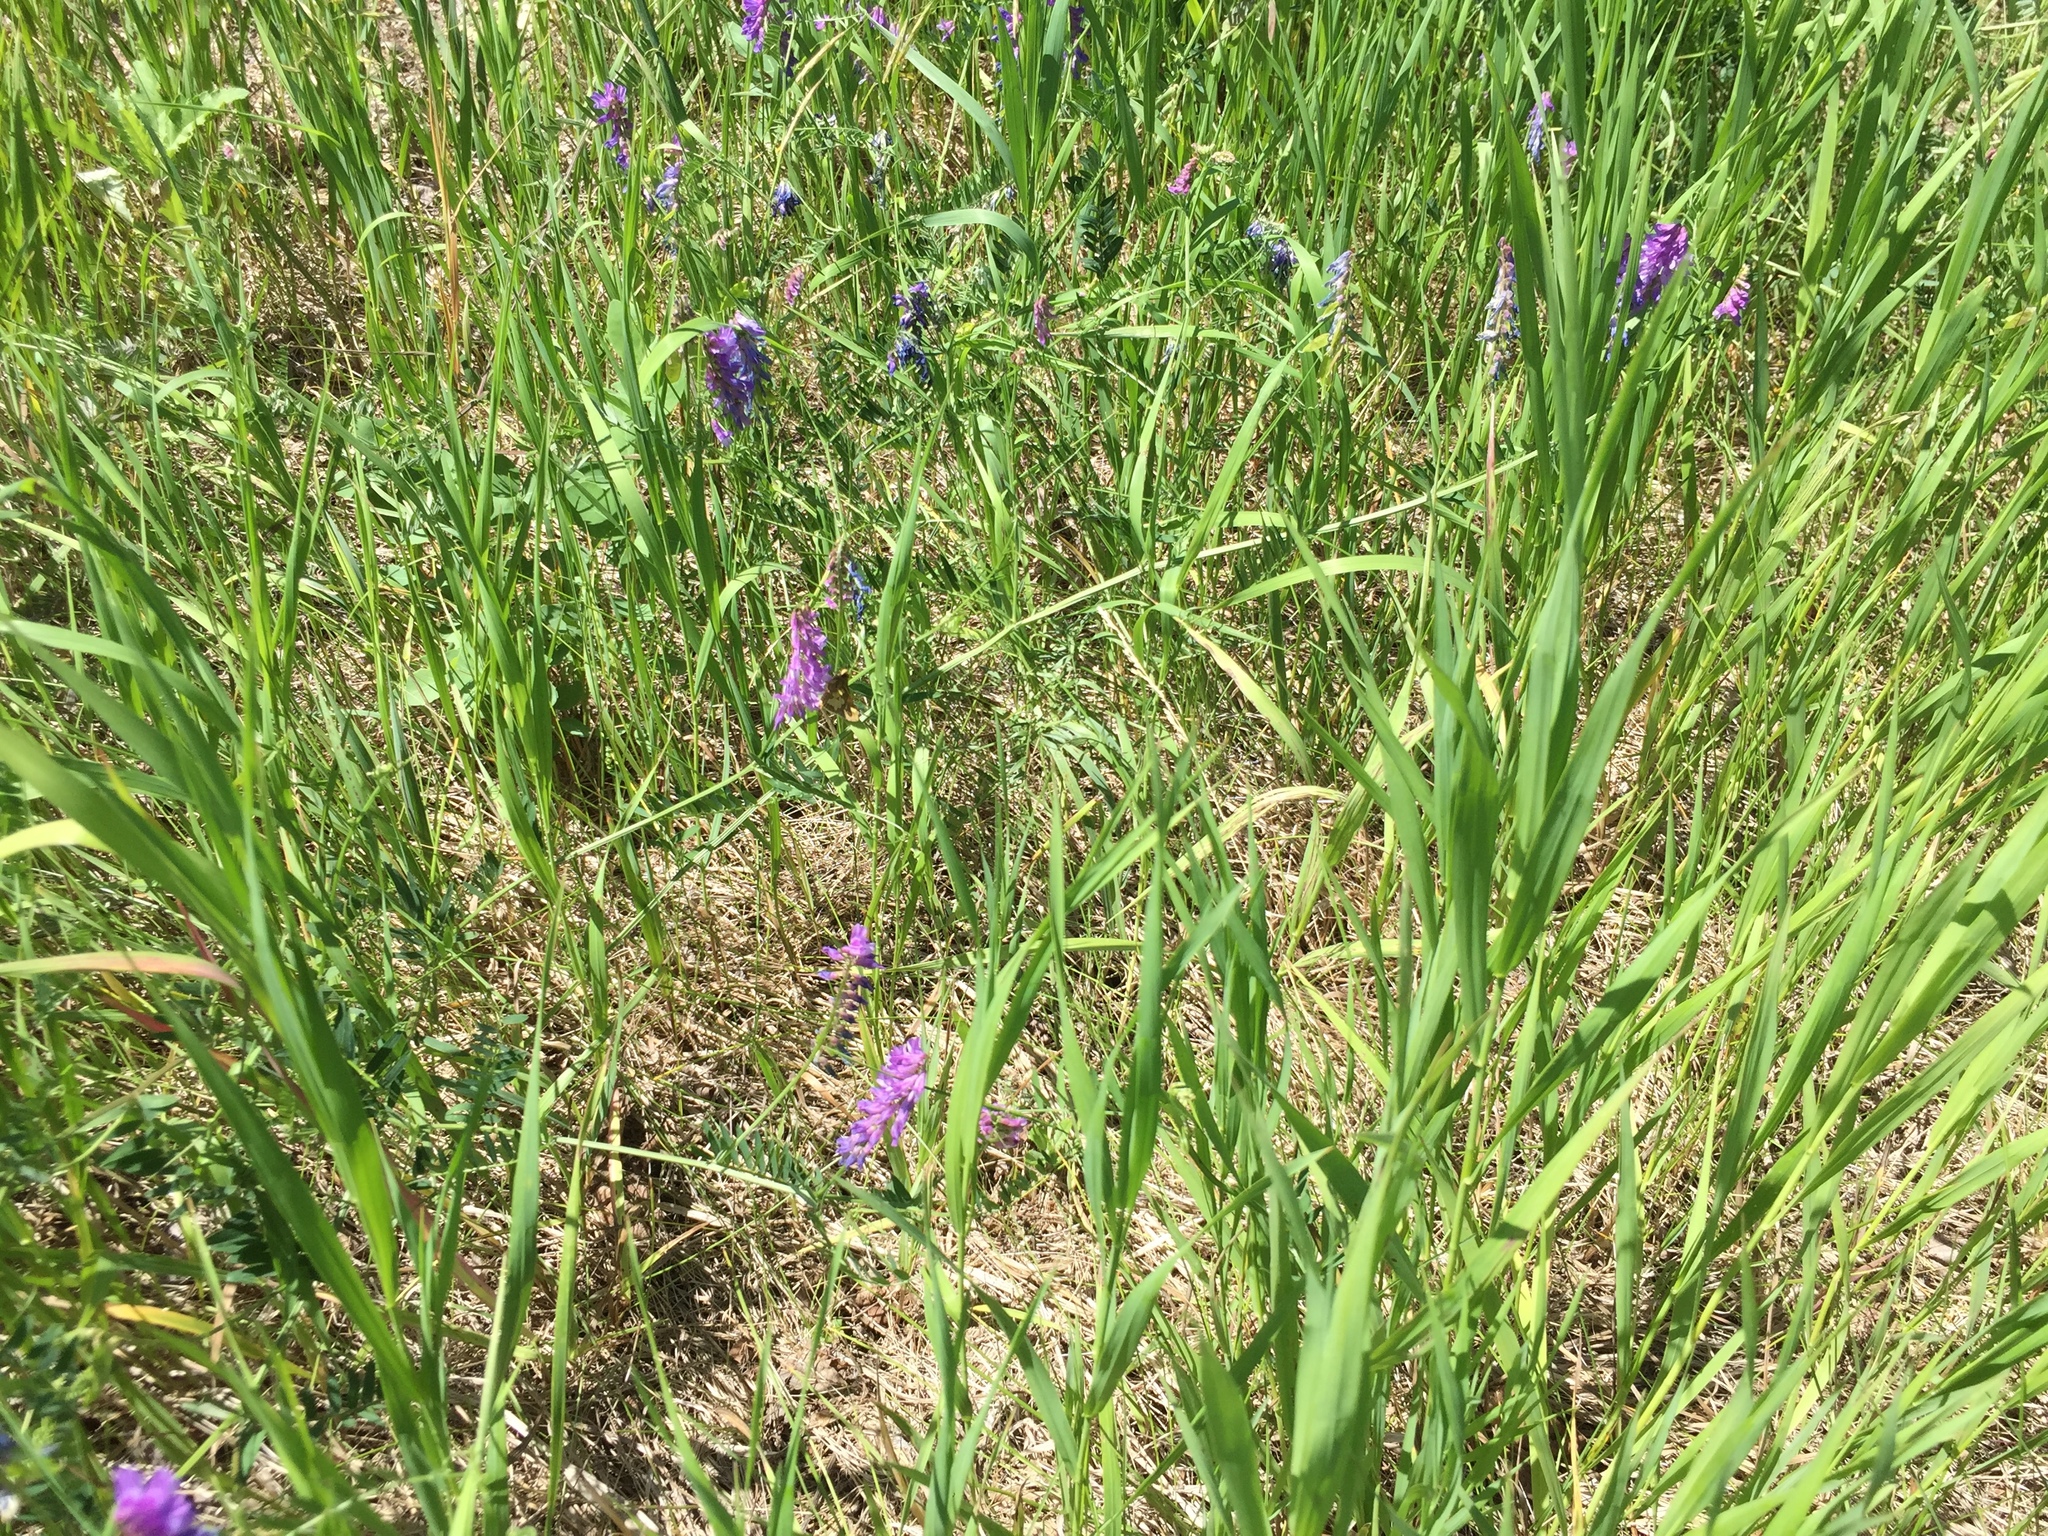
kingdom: Plantae
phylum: Tracheophyta
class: Magnoliopsida
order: Fabales
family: Fabaceae
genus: Vicia
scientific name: Vicia cracca
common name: Bird vetch
